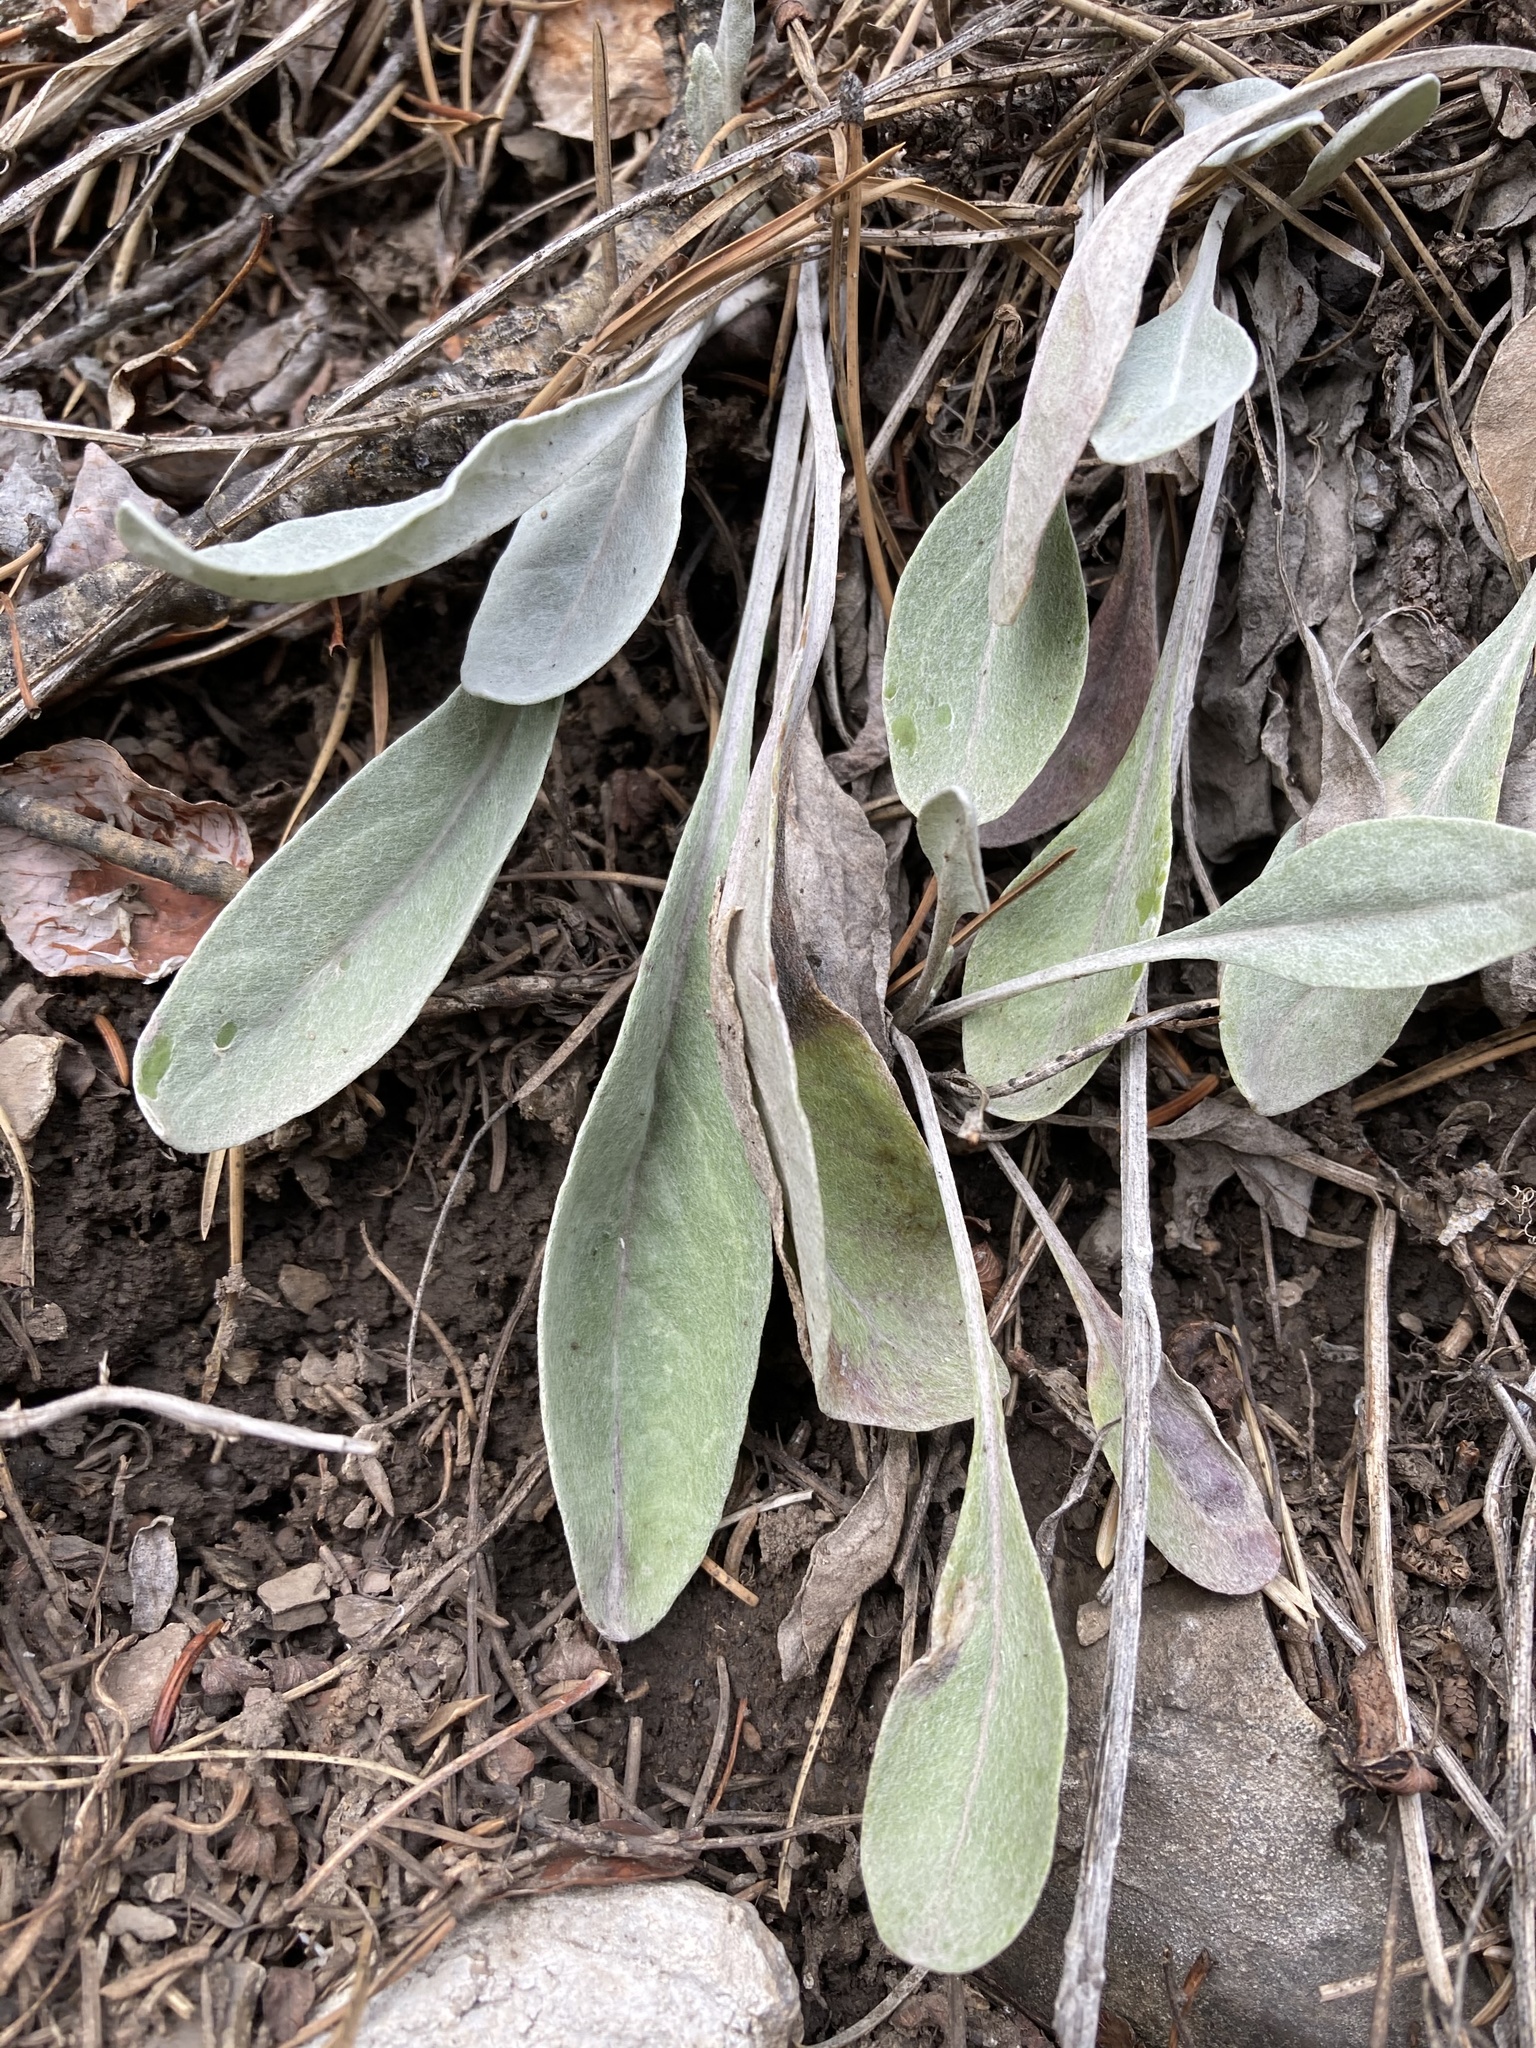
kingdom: Plantae
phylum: Tracheophyta
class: Magnoliopsida
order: Asterales
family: Asteraceae
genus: Packera
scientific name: Packera cana
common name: Woolly groundsel
